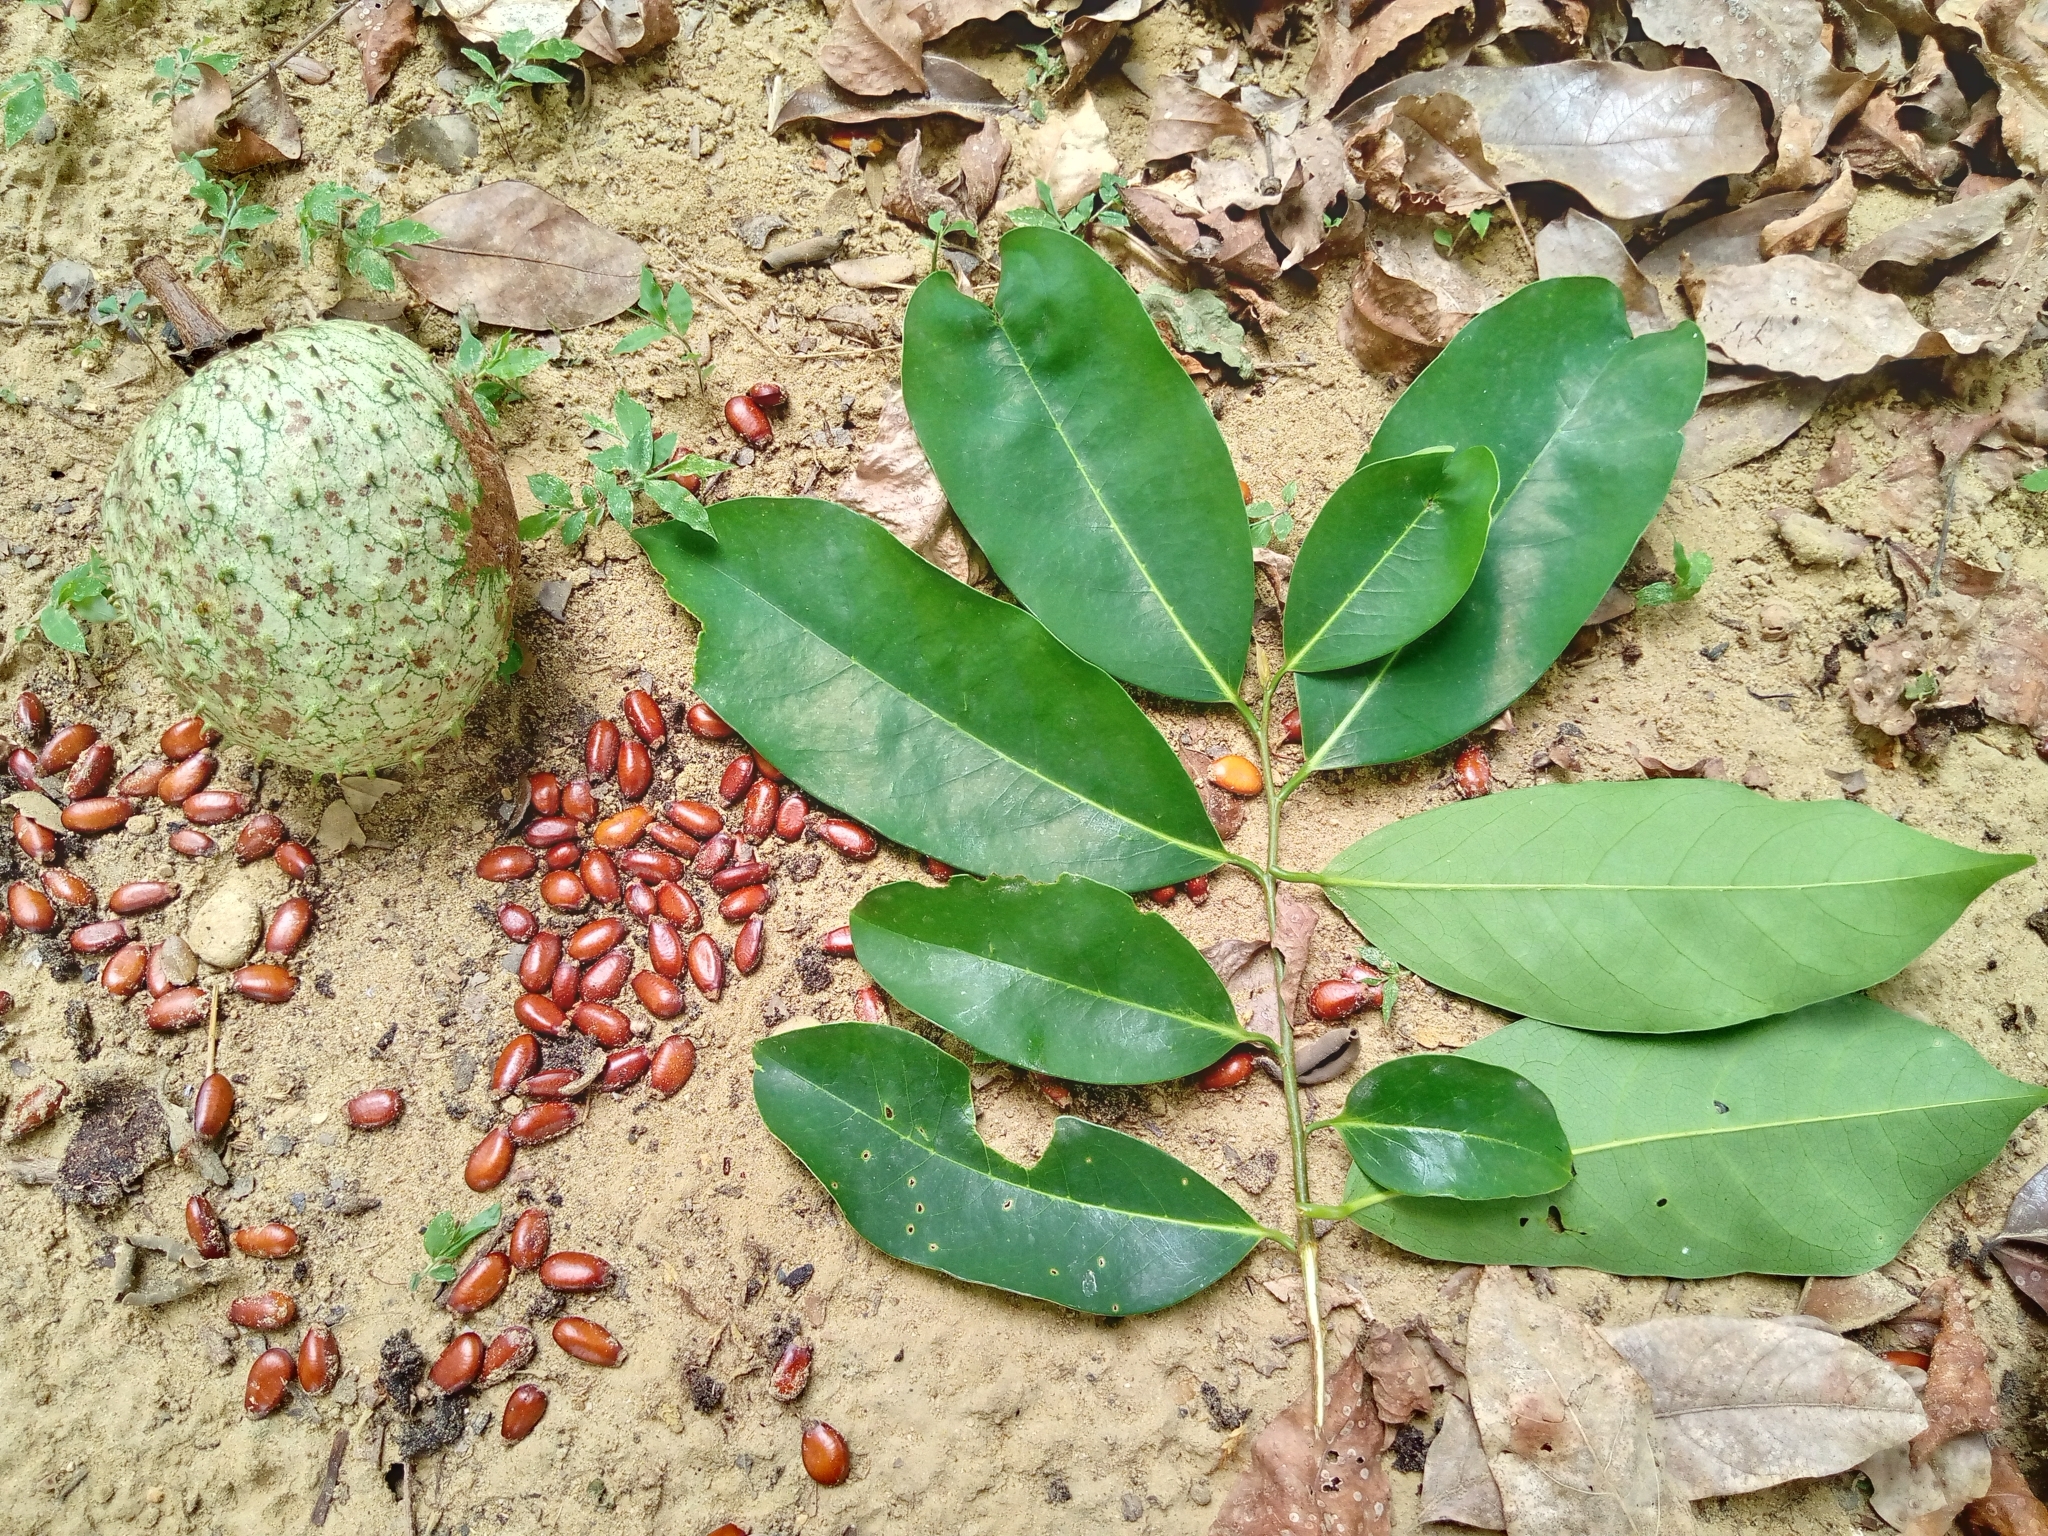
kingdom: Plantae
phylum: Tracheophyta
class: Magnoliopsida
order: Magnoliales
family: Annonaceae
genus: Annona
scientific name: Annona montana
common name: Mountain soursop
